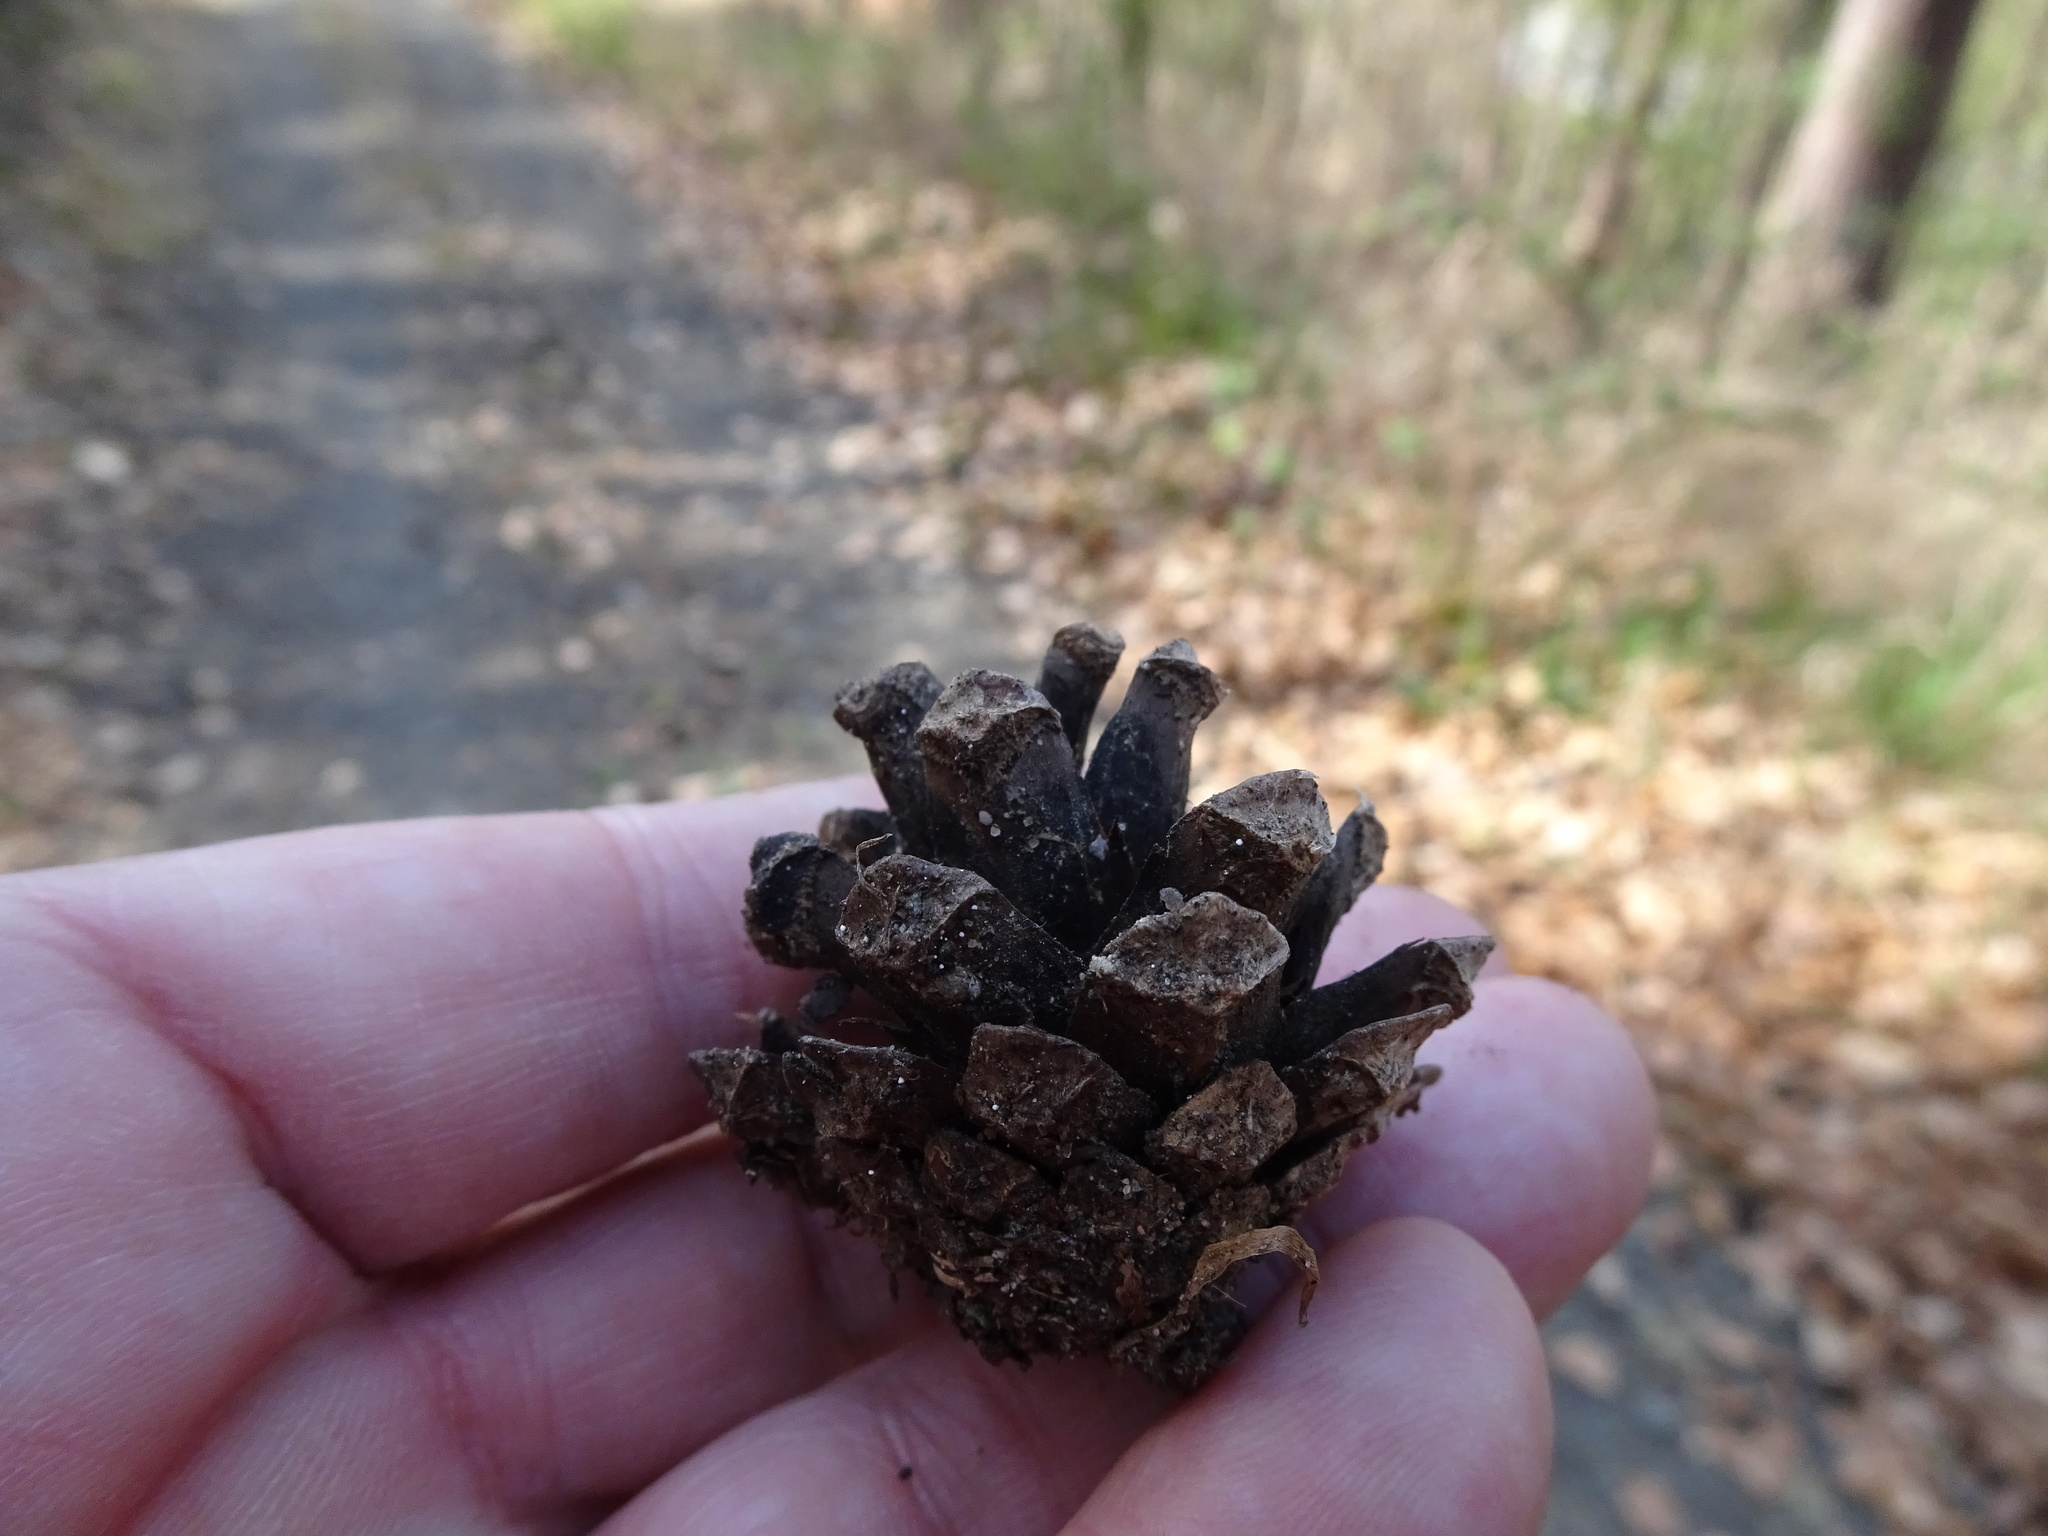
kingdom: Plantae
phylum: Tracheophyta
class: Pinopsida
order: Pinales
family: Pinaceae
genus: Pinus
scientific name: Pinus sylvestris
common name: Scots pine
